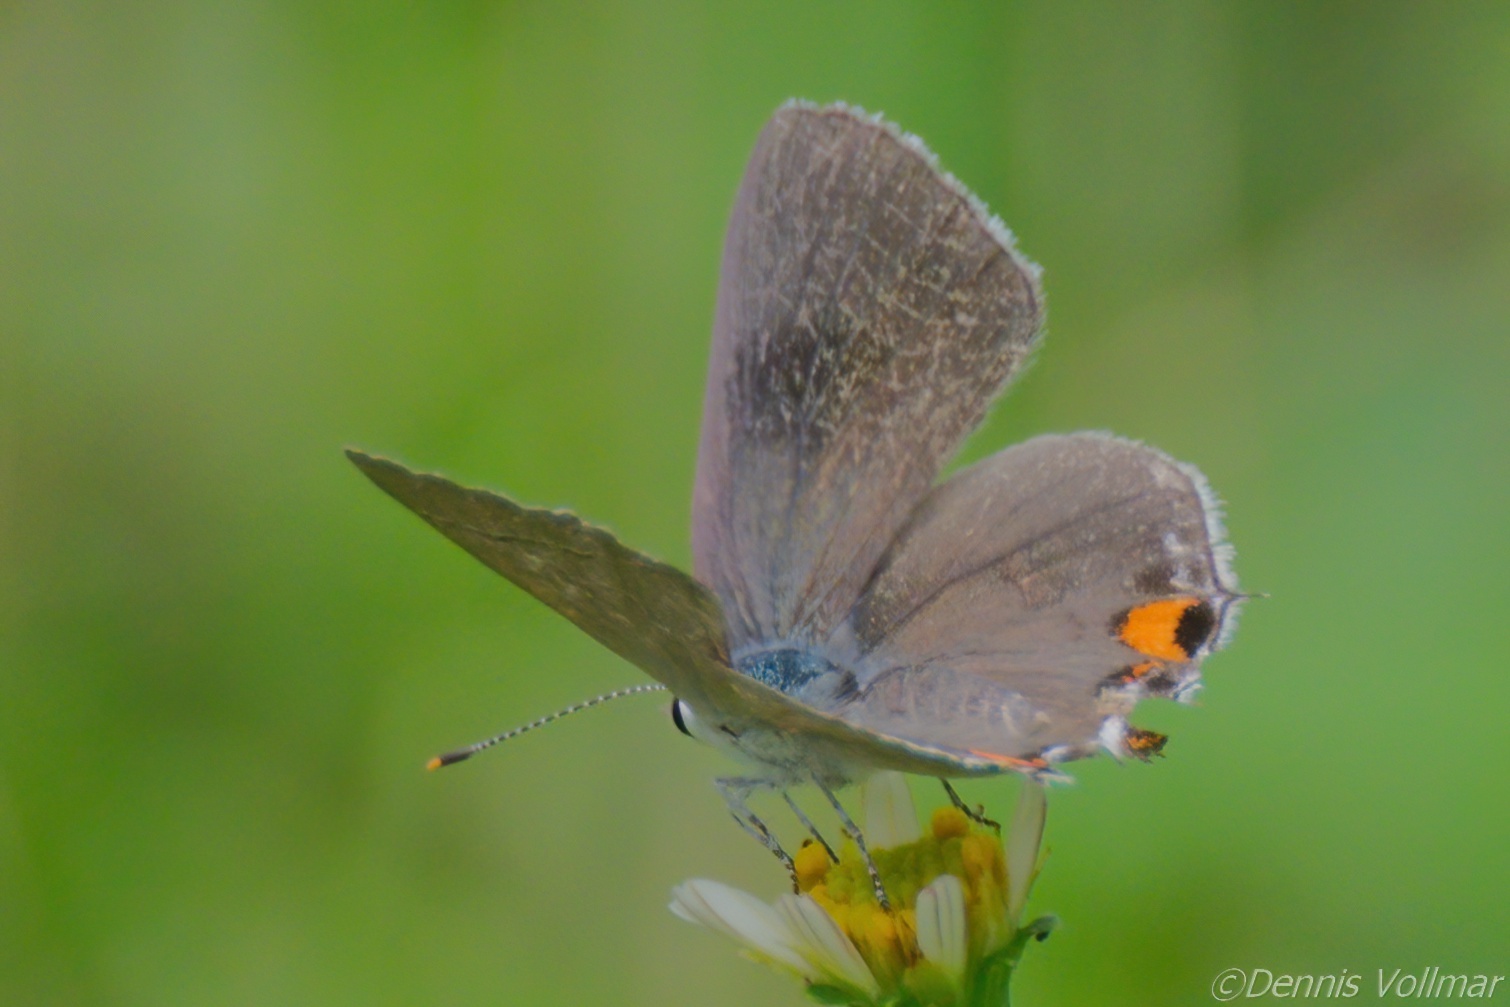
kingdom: Animalia
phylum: Arthropoda
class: Insecta
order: Lepidoptera
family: Lycaenidae
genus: Strymon
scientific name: Strymon melinus
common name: Gray hairstreak
